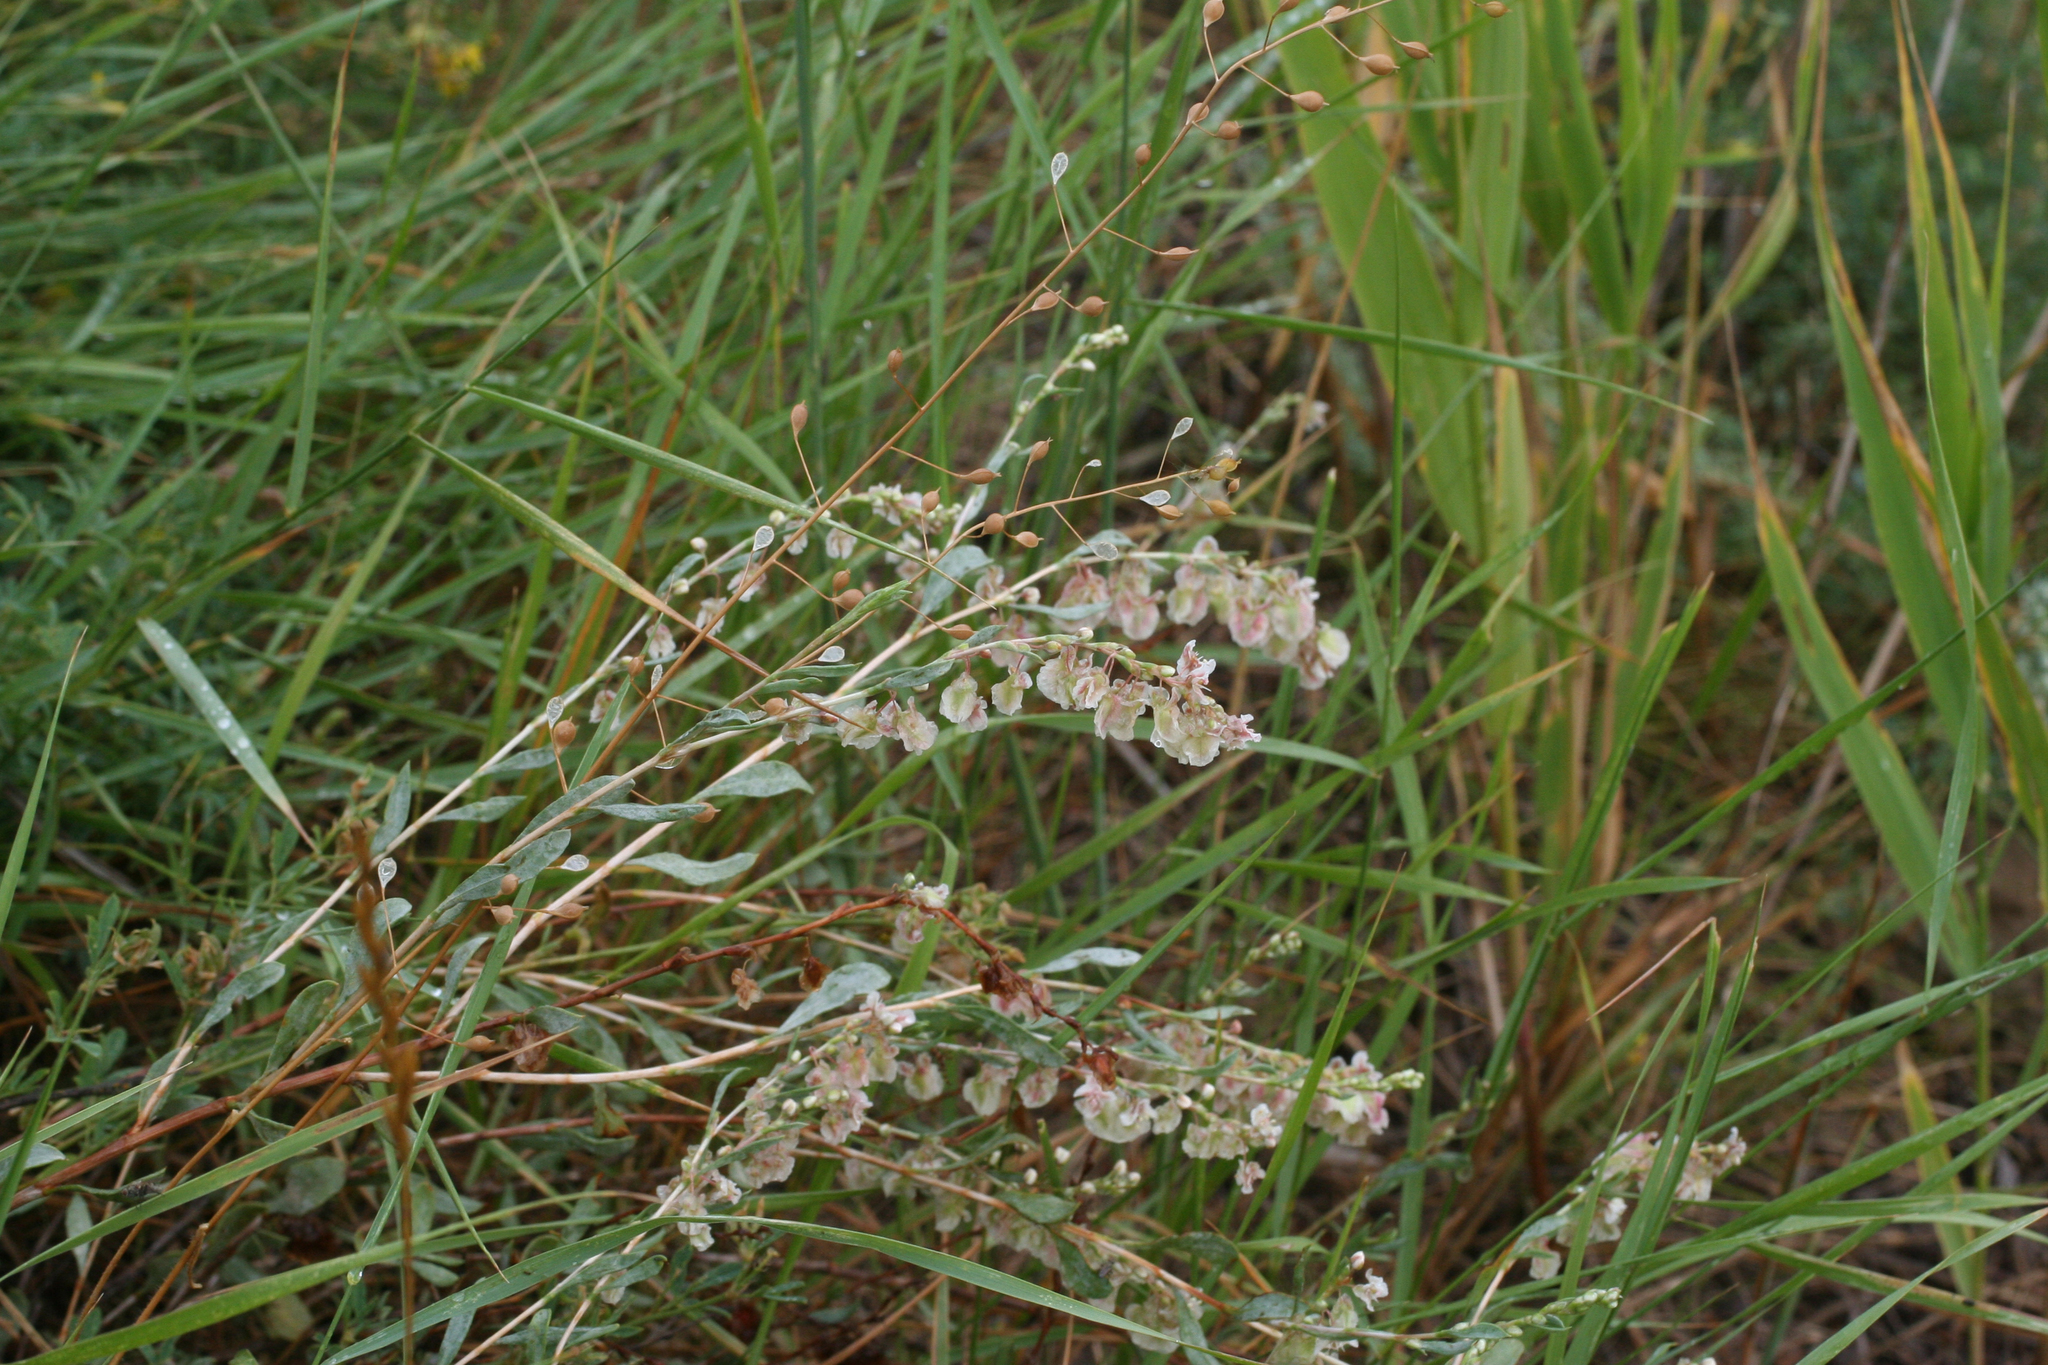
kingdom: Plantae
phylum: Tracheophyta
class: Magnoliopsida
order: Caryophyllales
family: Polygonaceae
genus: Atraphaxis
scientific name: Atraphaxis frutescens
